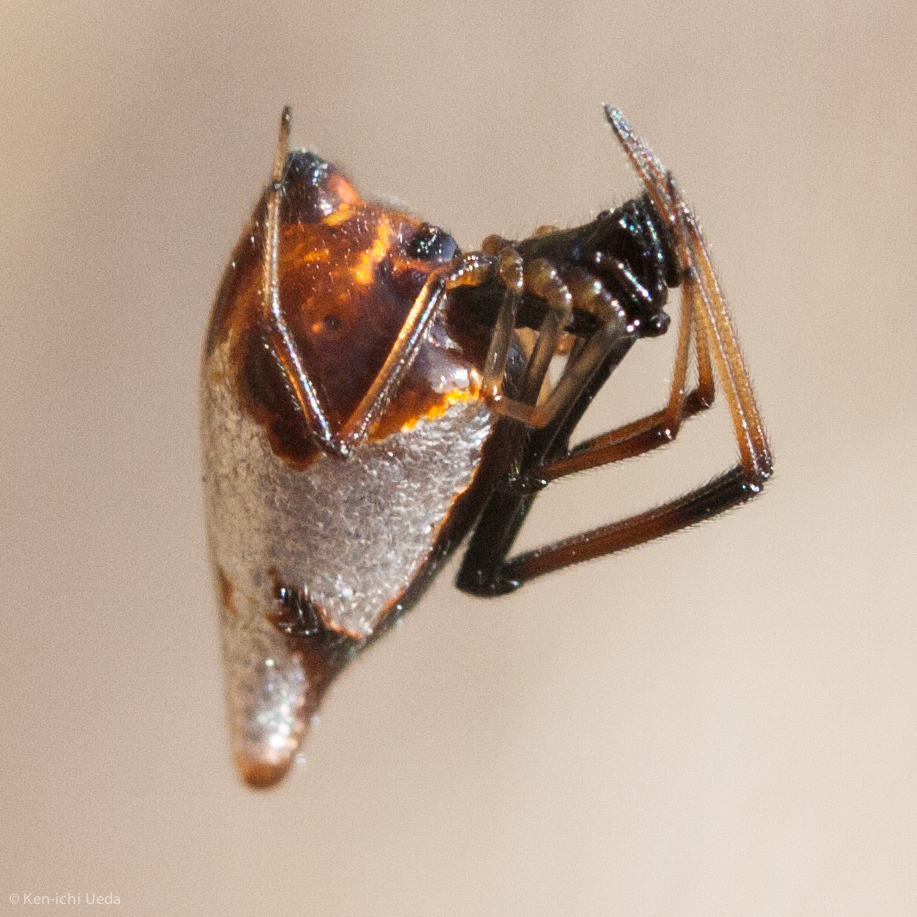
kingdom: Animalia
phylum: Arthropoda
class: Arachnida
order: Araneae
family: Theridiidae
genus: Argyrodes
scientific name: Argyrodes elevatus
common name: Cobweb spiders
